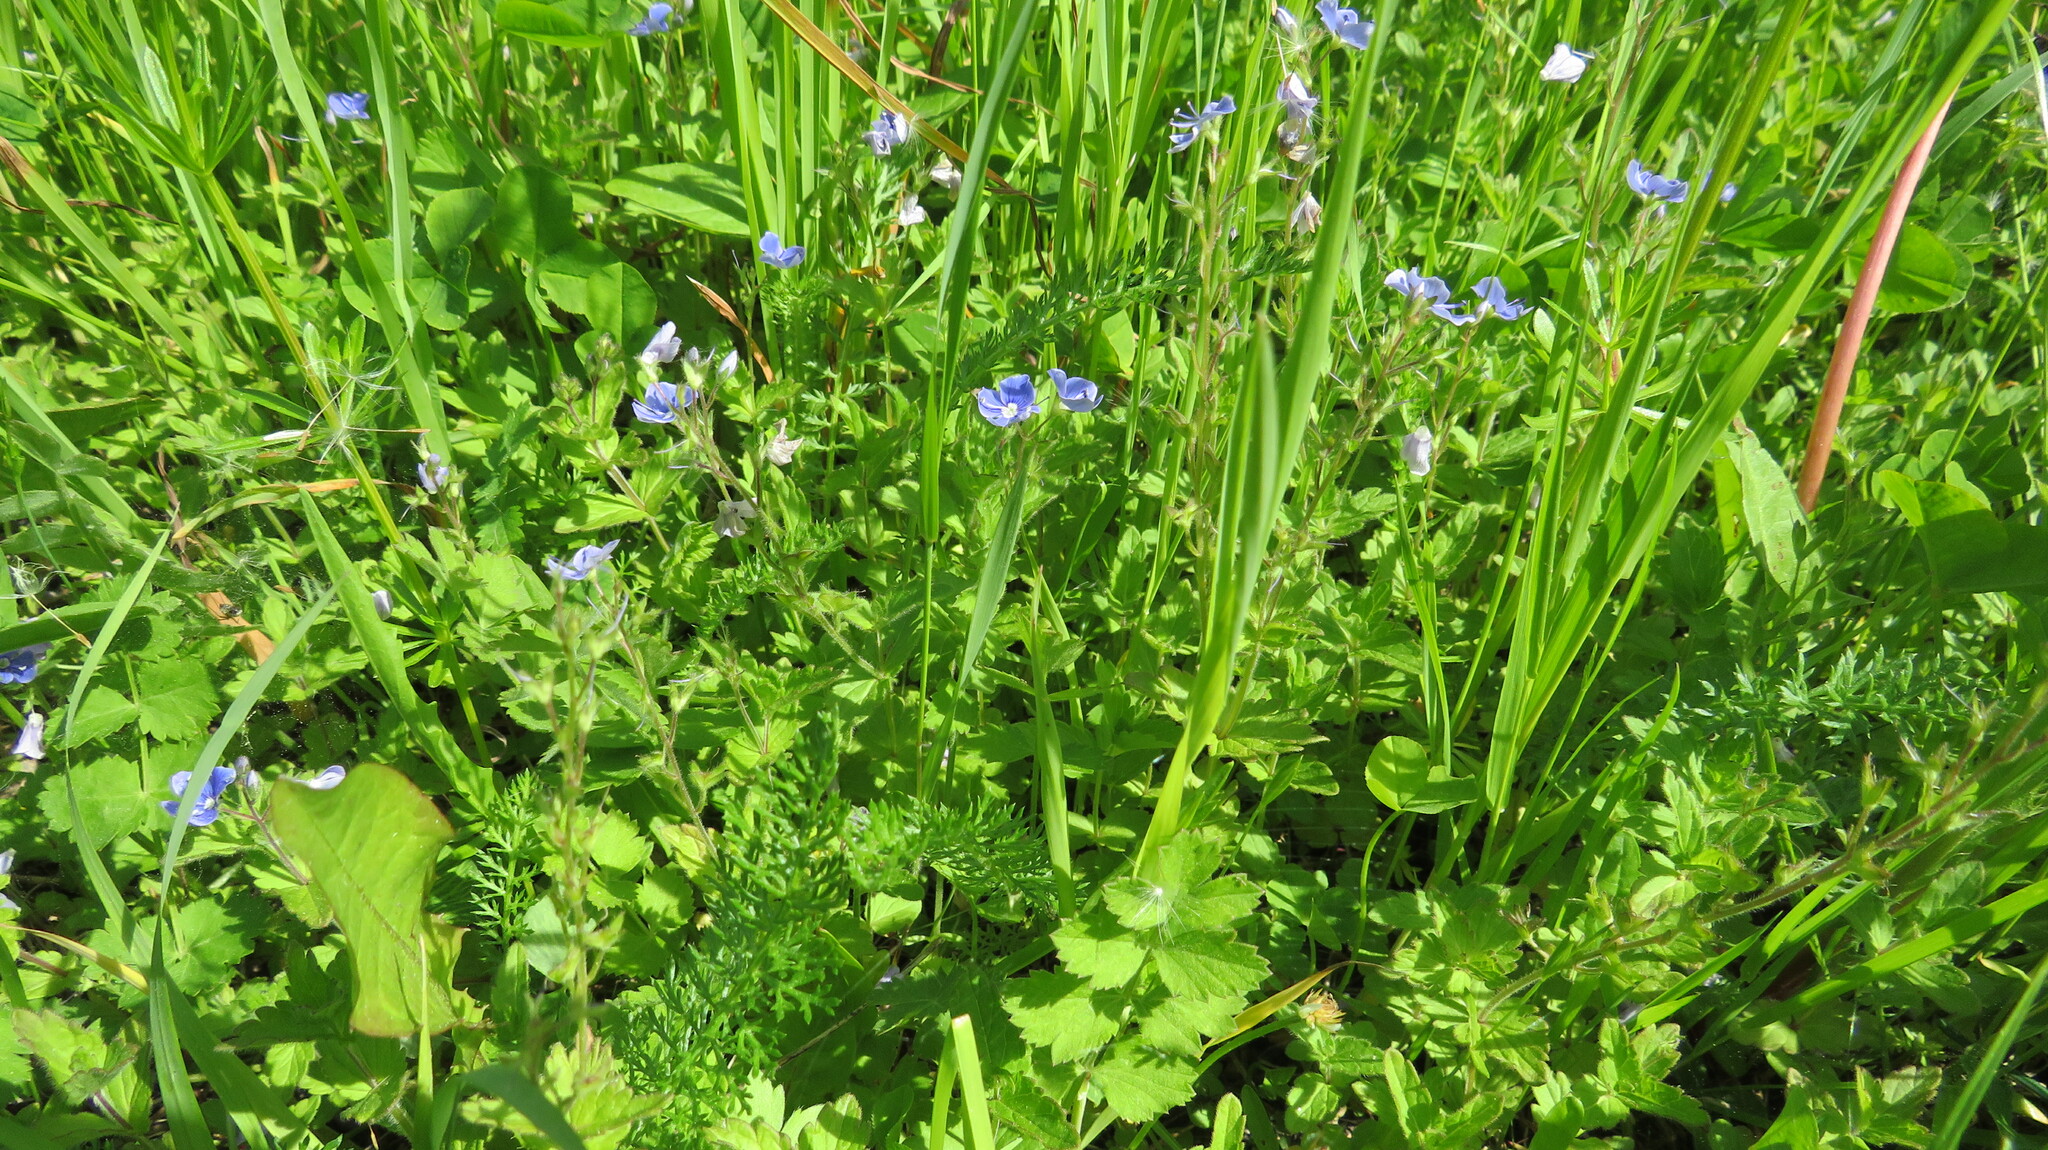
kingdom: Plantae
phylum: Tracheophyta
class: Magnoliopsida
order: Lamiales
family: Plantaginaceae
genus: Veronica
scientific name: Veronica chamaedrys
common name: Germander speedwell
